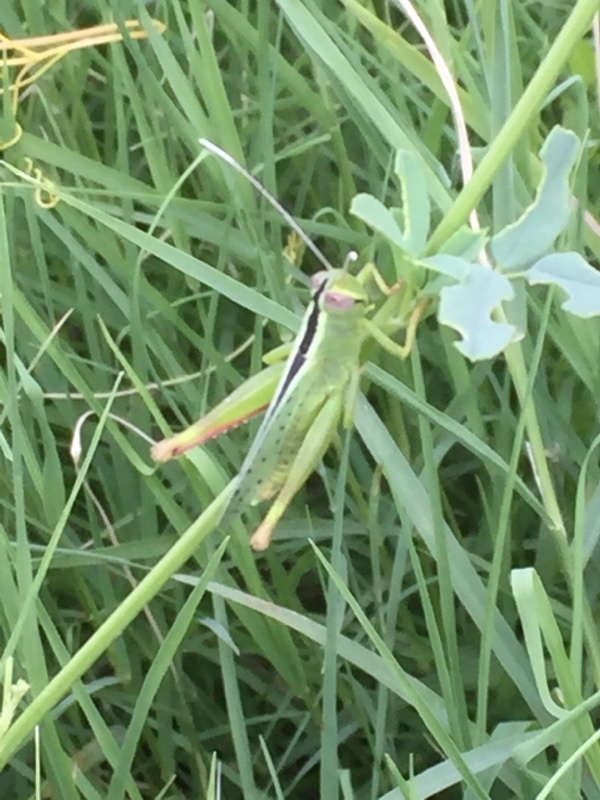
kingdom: Animalia
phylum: Arthropoda
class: Insecta
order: Orthoptera
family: Acrididae
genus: Heteracris
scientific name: Heteracris pterosticha
